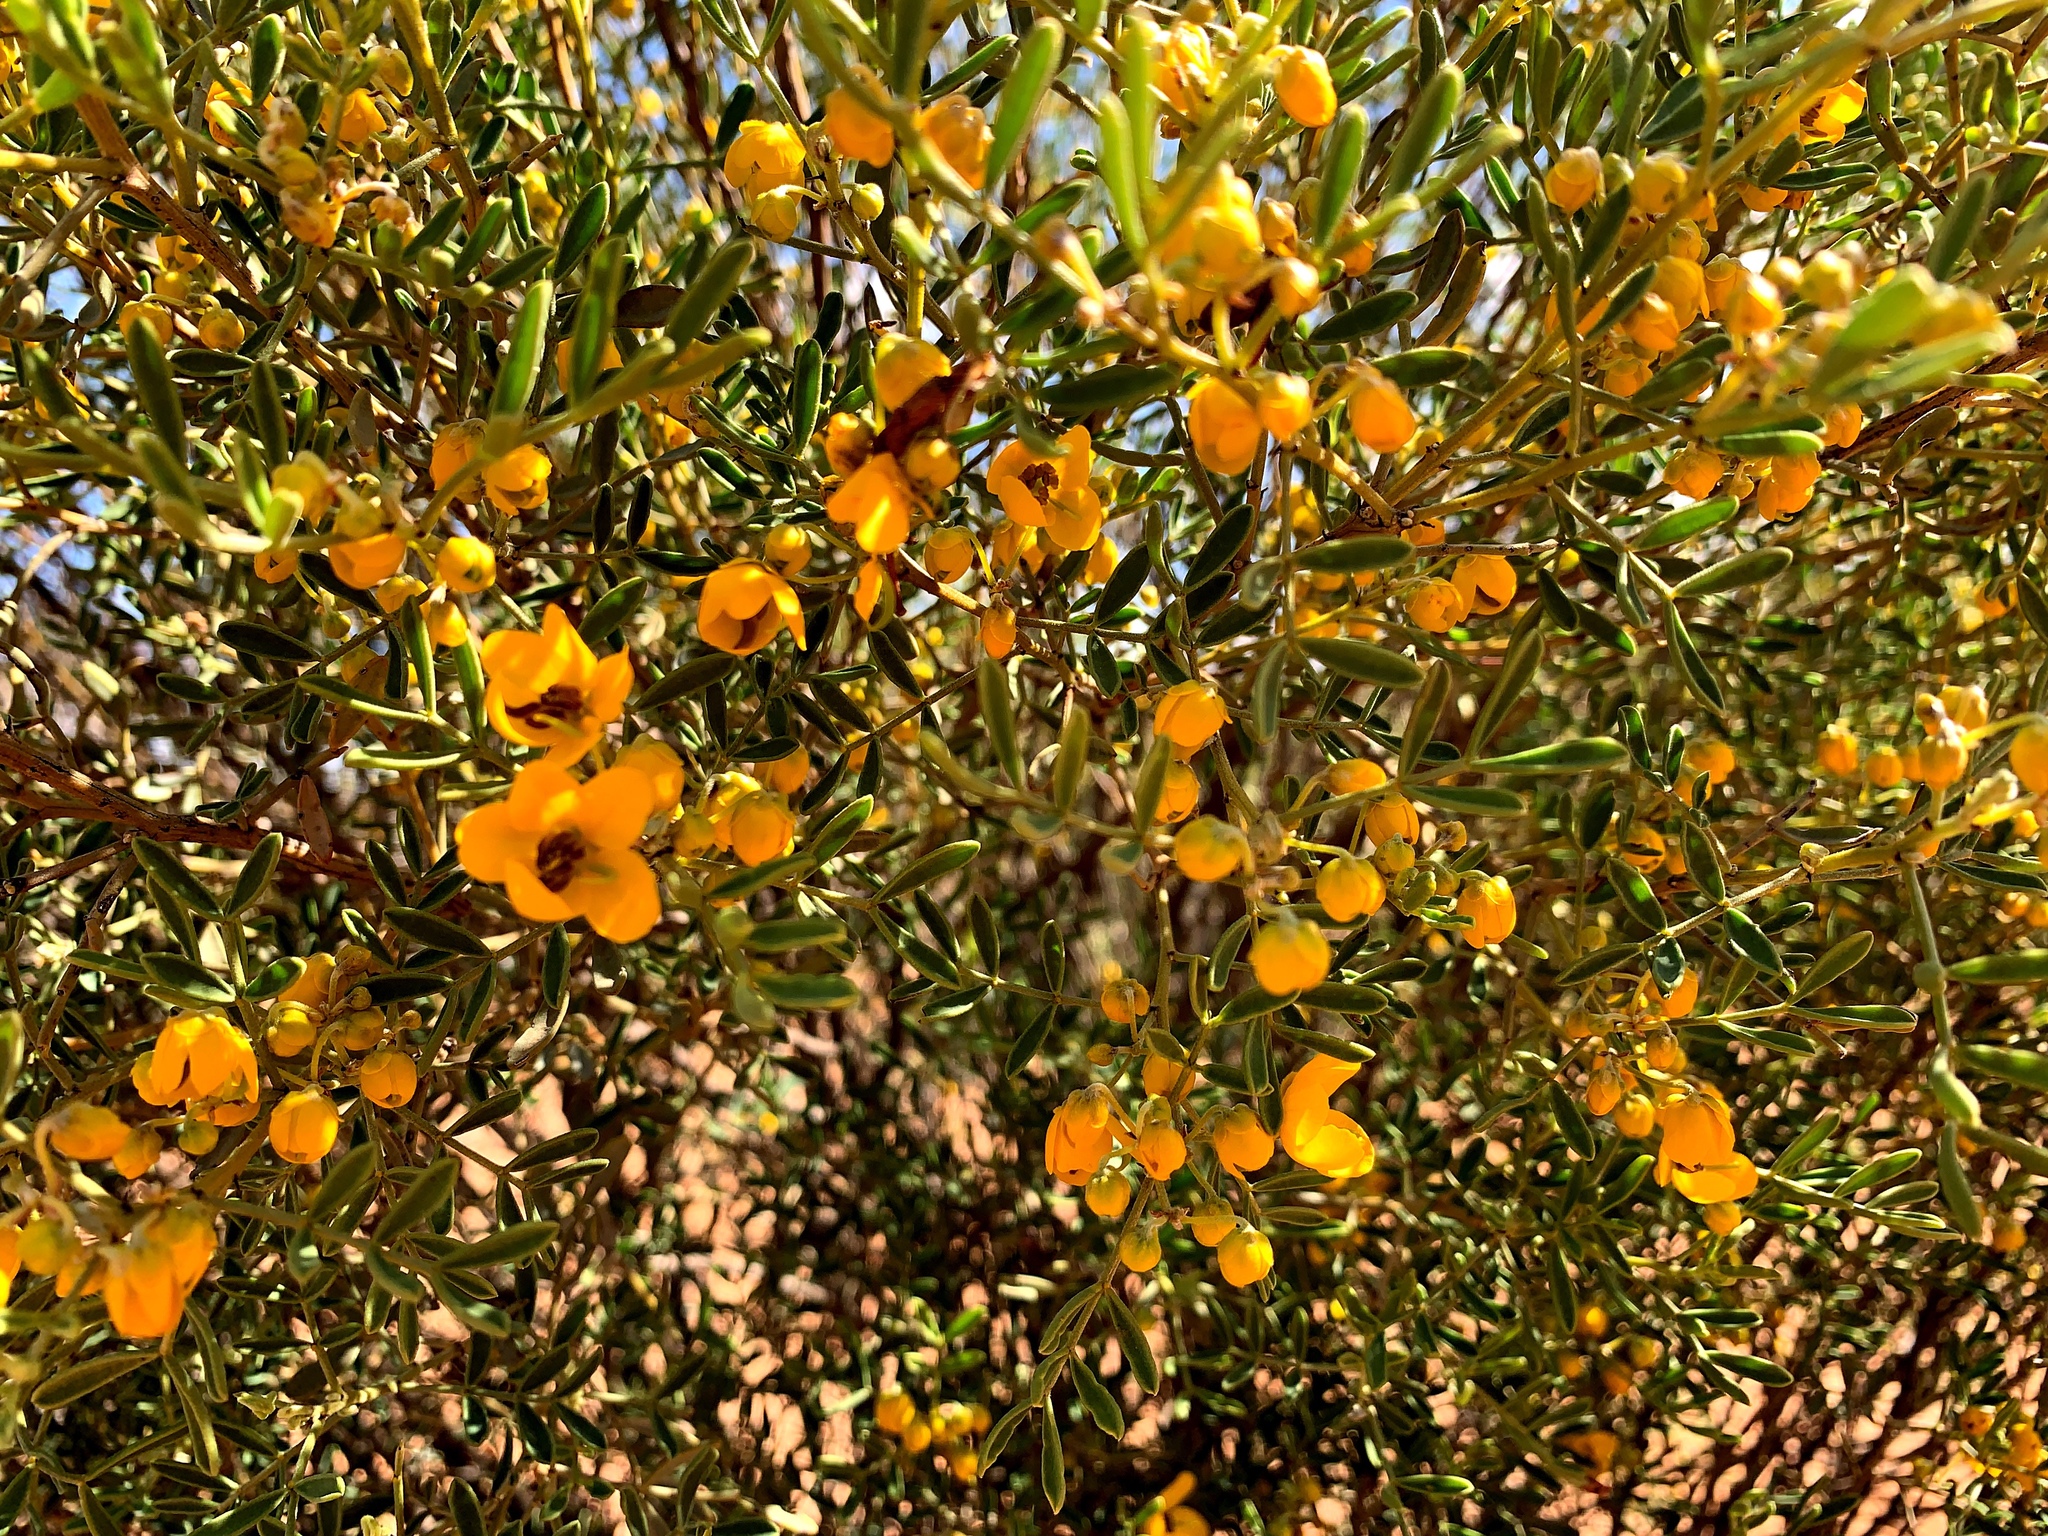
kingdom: Plantae
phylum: Tracheophyta
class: Magnoliopsida
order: Fabales
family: Fabaceae
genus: Senna
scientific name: Senna artemisioides
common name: Burnt-leaved acacia
